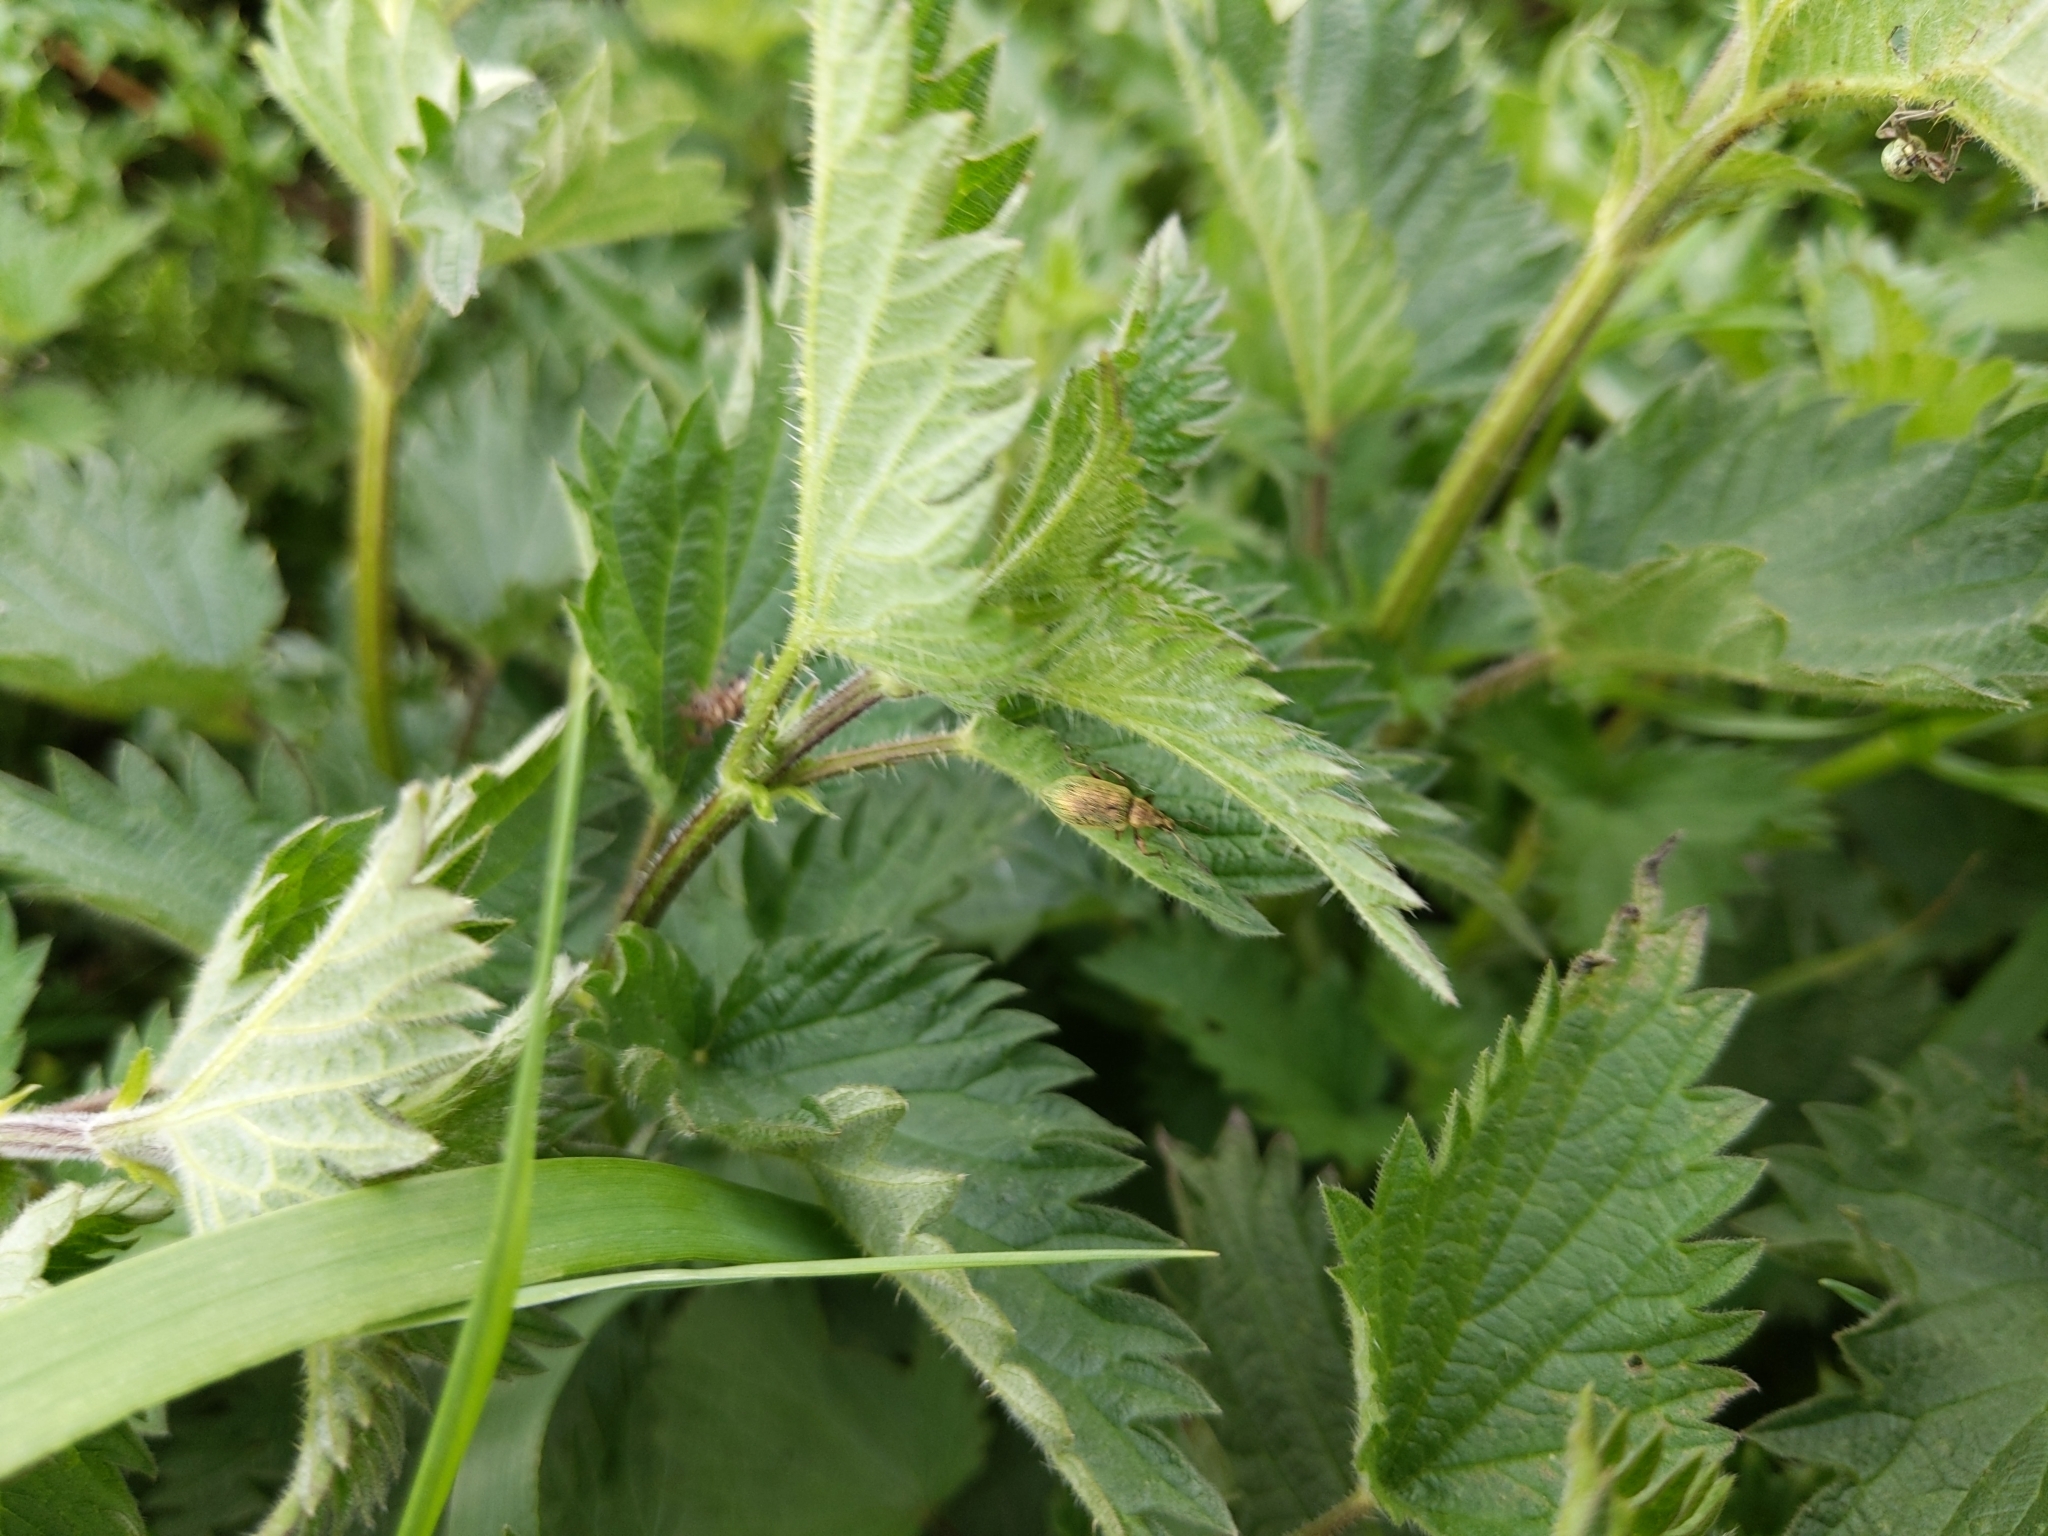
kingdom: Animalia
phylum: Arthropoda
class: Insecta
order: Coleoptera
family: Curculionidae
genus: Phyllobius
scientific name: Phyllobius pomaceus
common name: Green nettle weevil
